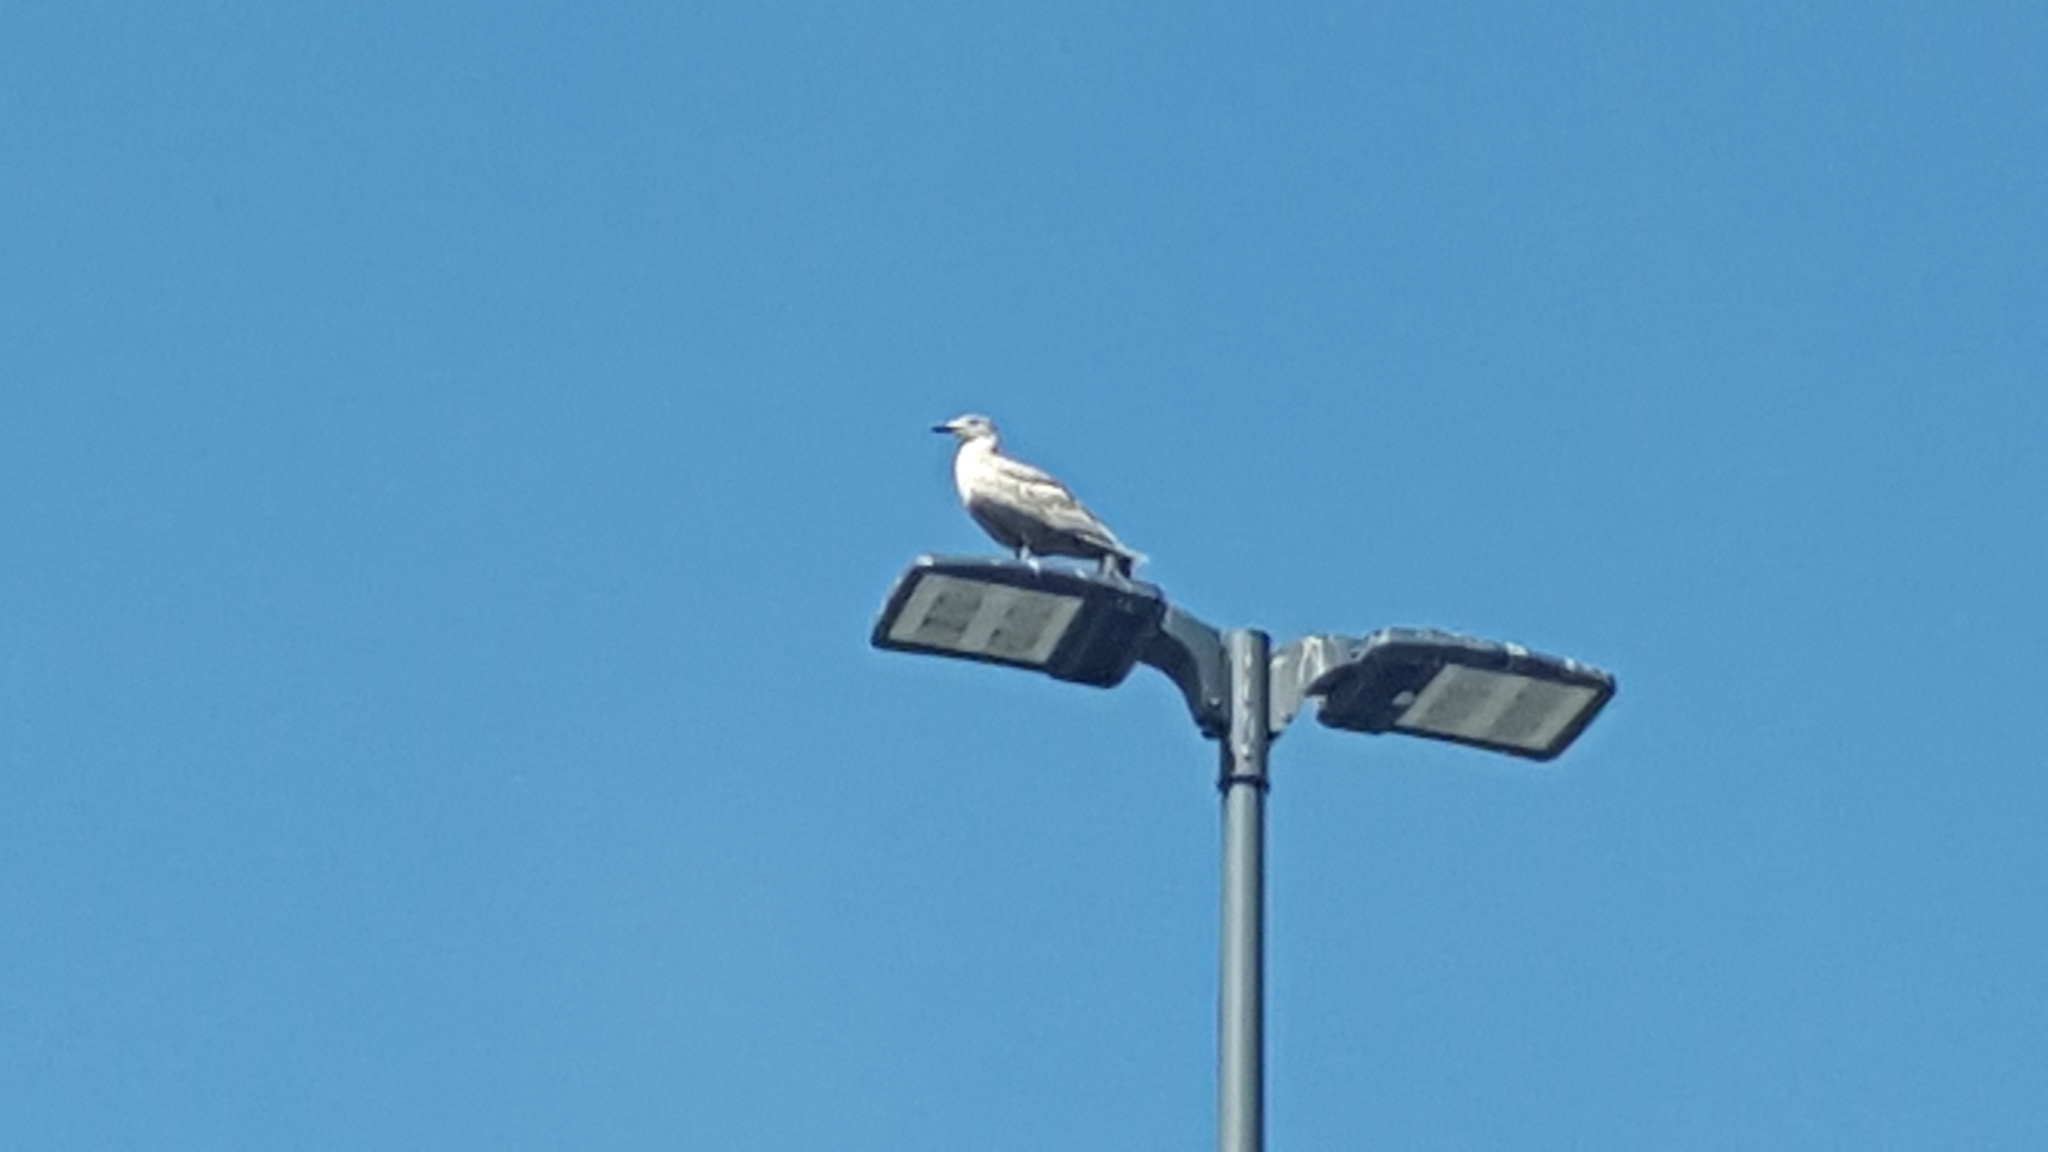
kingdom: Animalia
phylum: Chordata
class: Aves
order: Charadriiformes
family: Laridae
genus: Larus
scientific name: Larus
